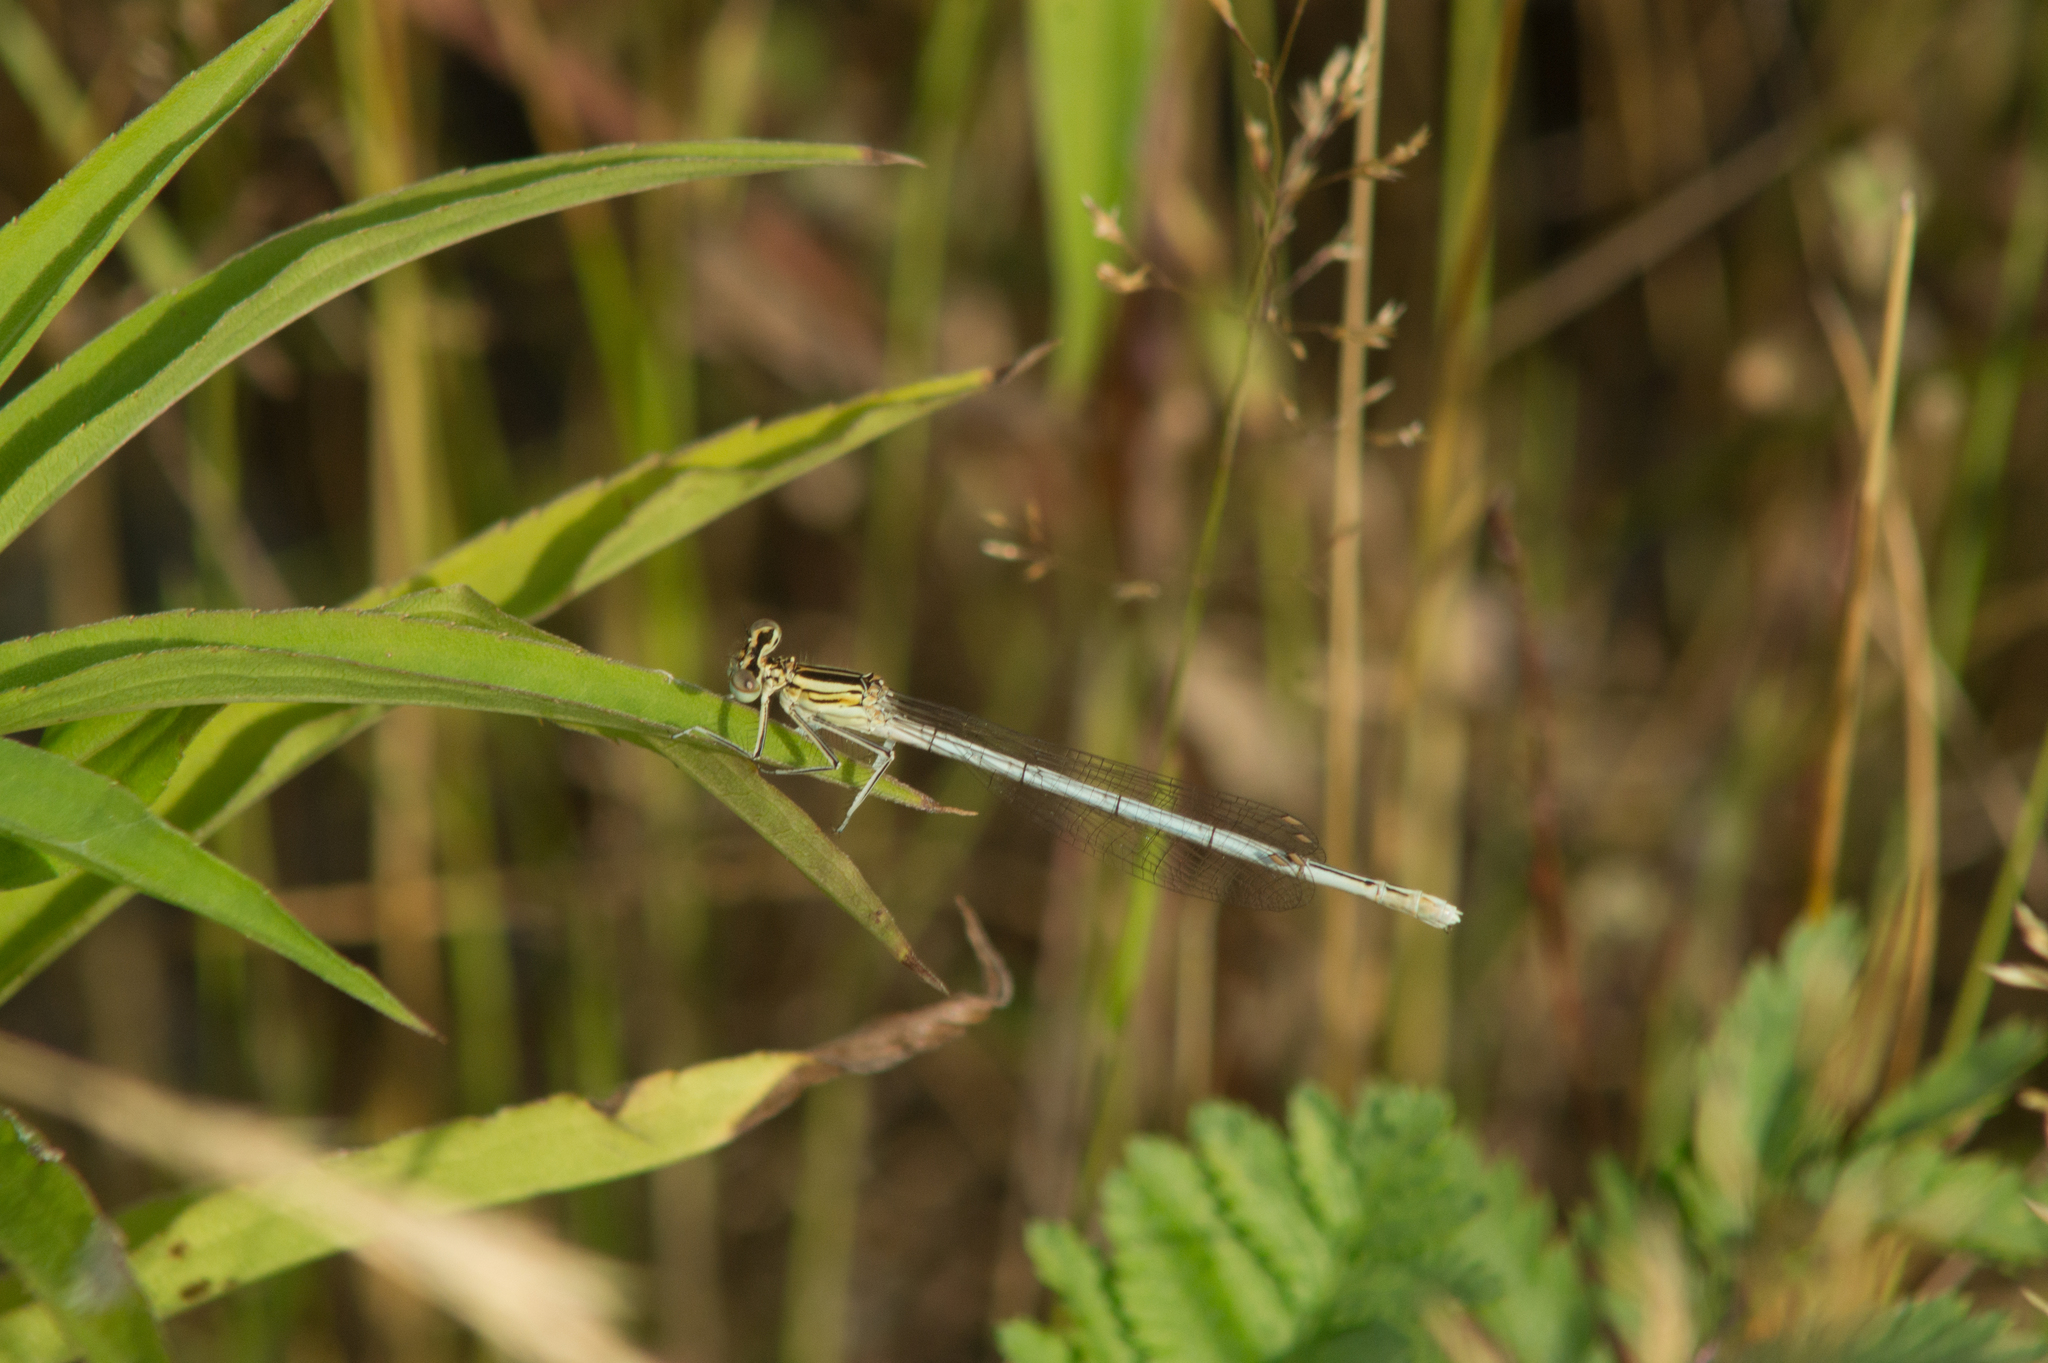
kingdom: Animalia
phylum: Arthropoda
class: Insecta
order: Odonata
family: Platycnemididae
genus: Platycnemis
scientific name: Platycnemis pennipes
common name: White-legged damselfly
